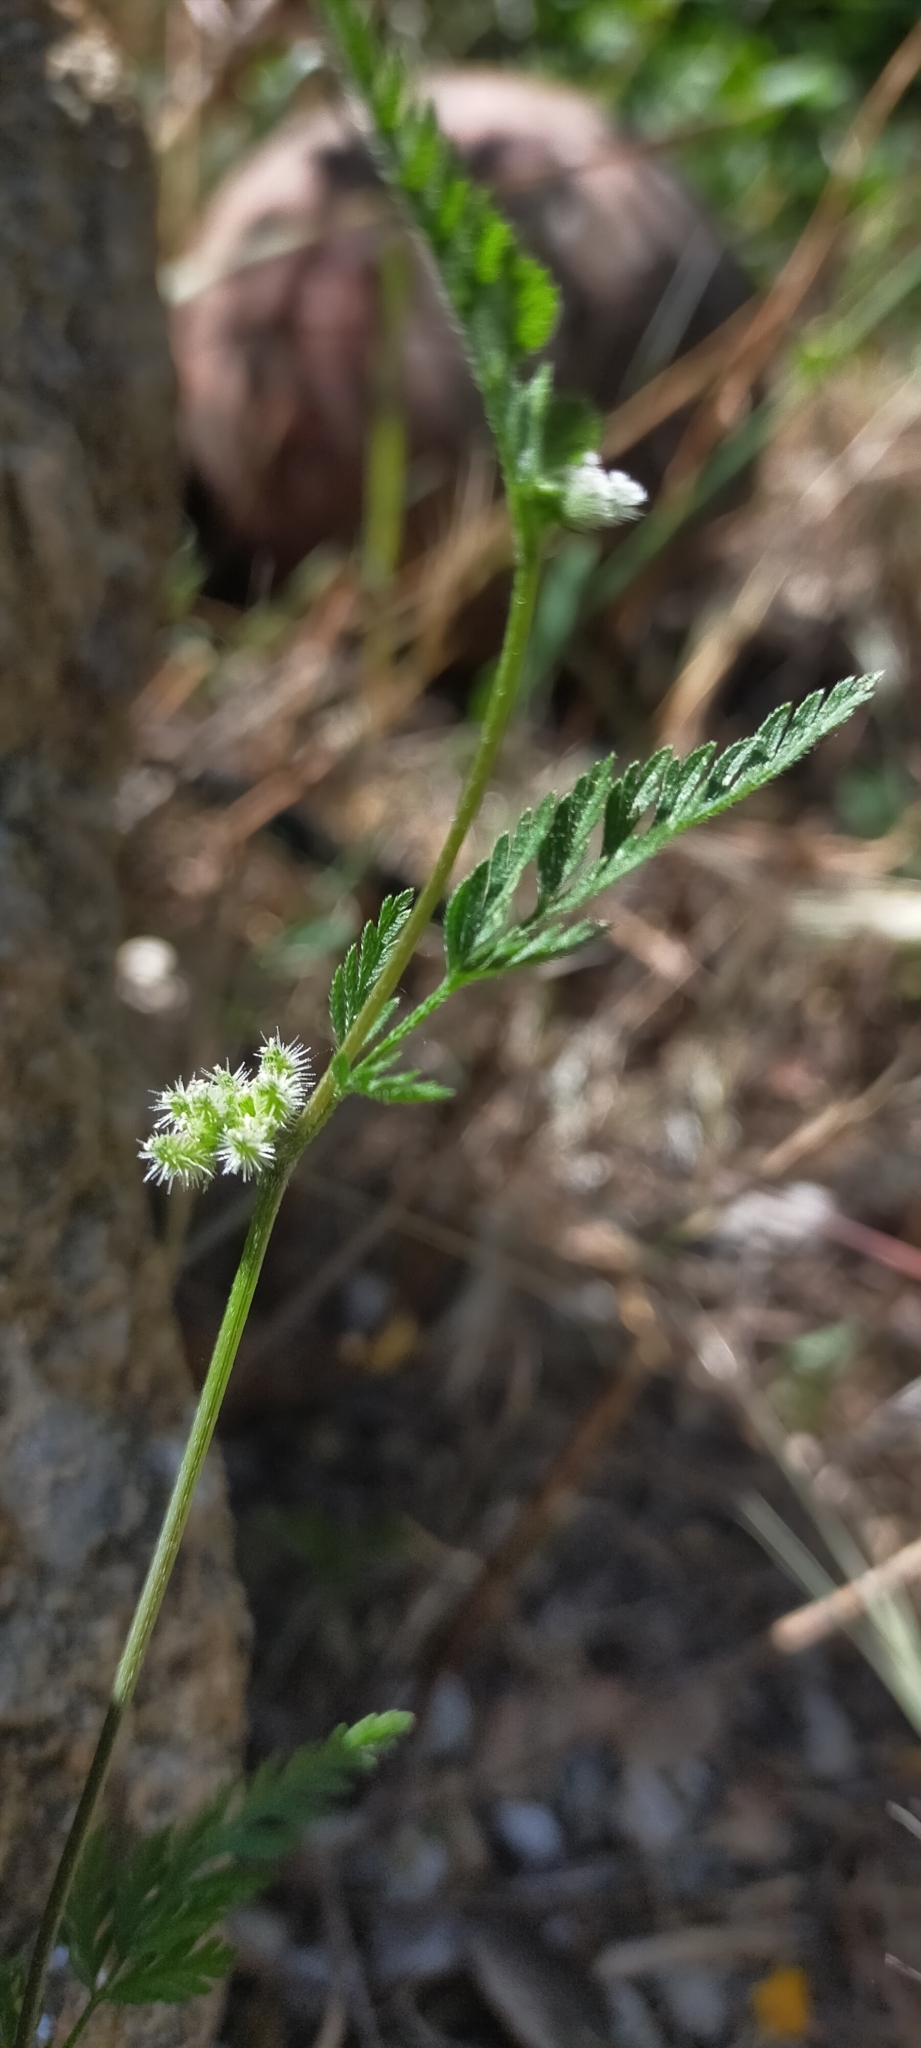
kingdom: Plantae
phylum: Tracheophyta
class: Magnoliopsida
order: Apiales
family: Apiaceae
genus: Torilis
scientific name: Torilis nodosa
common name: Knotted hedge-parsley
